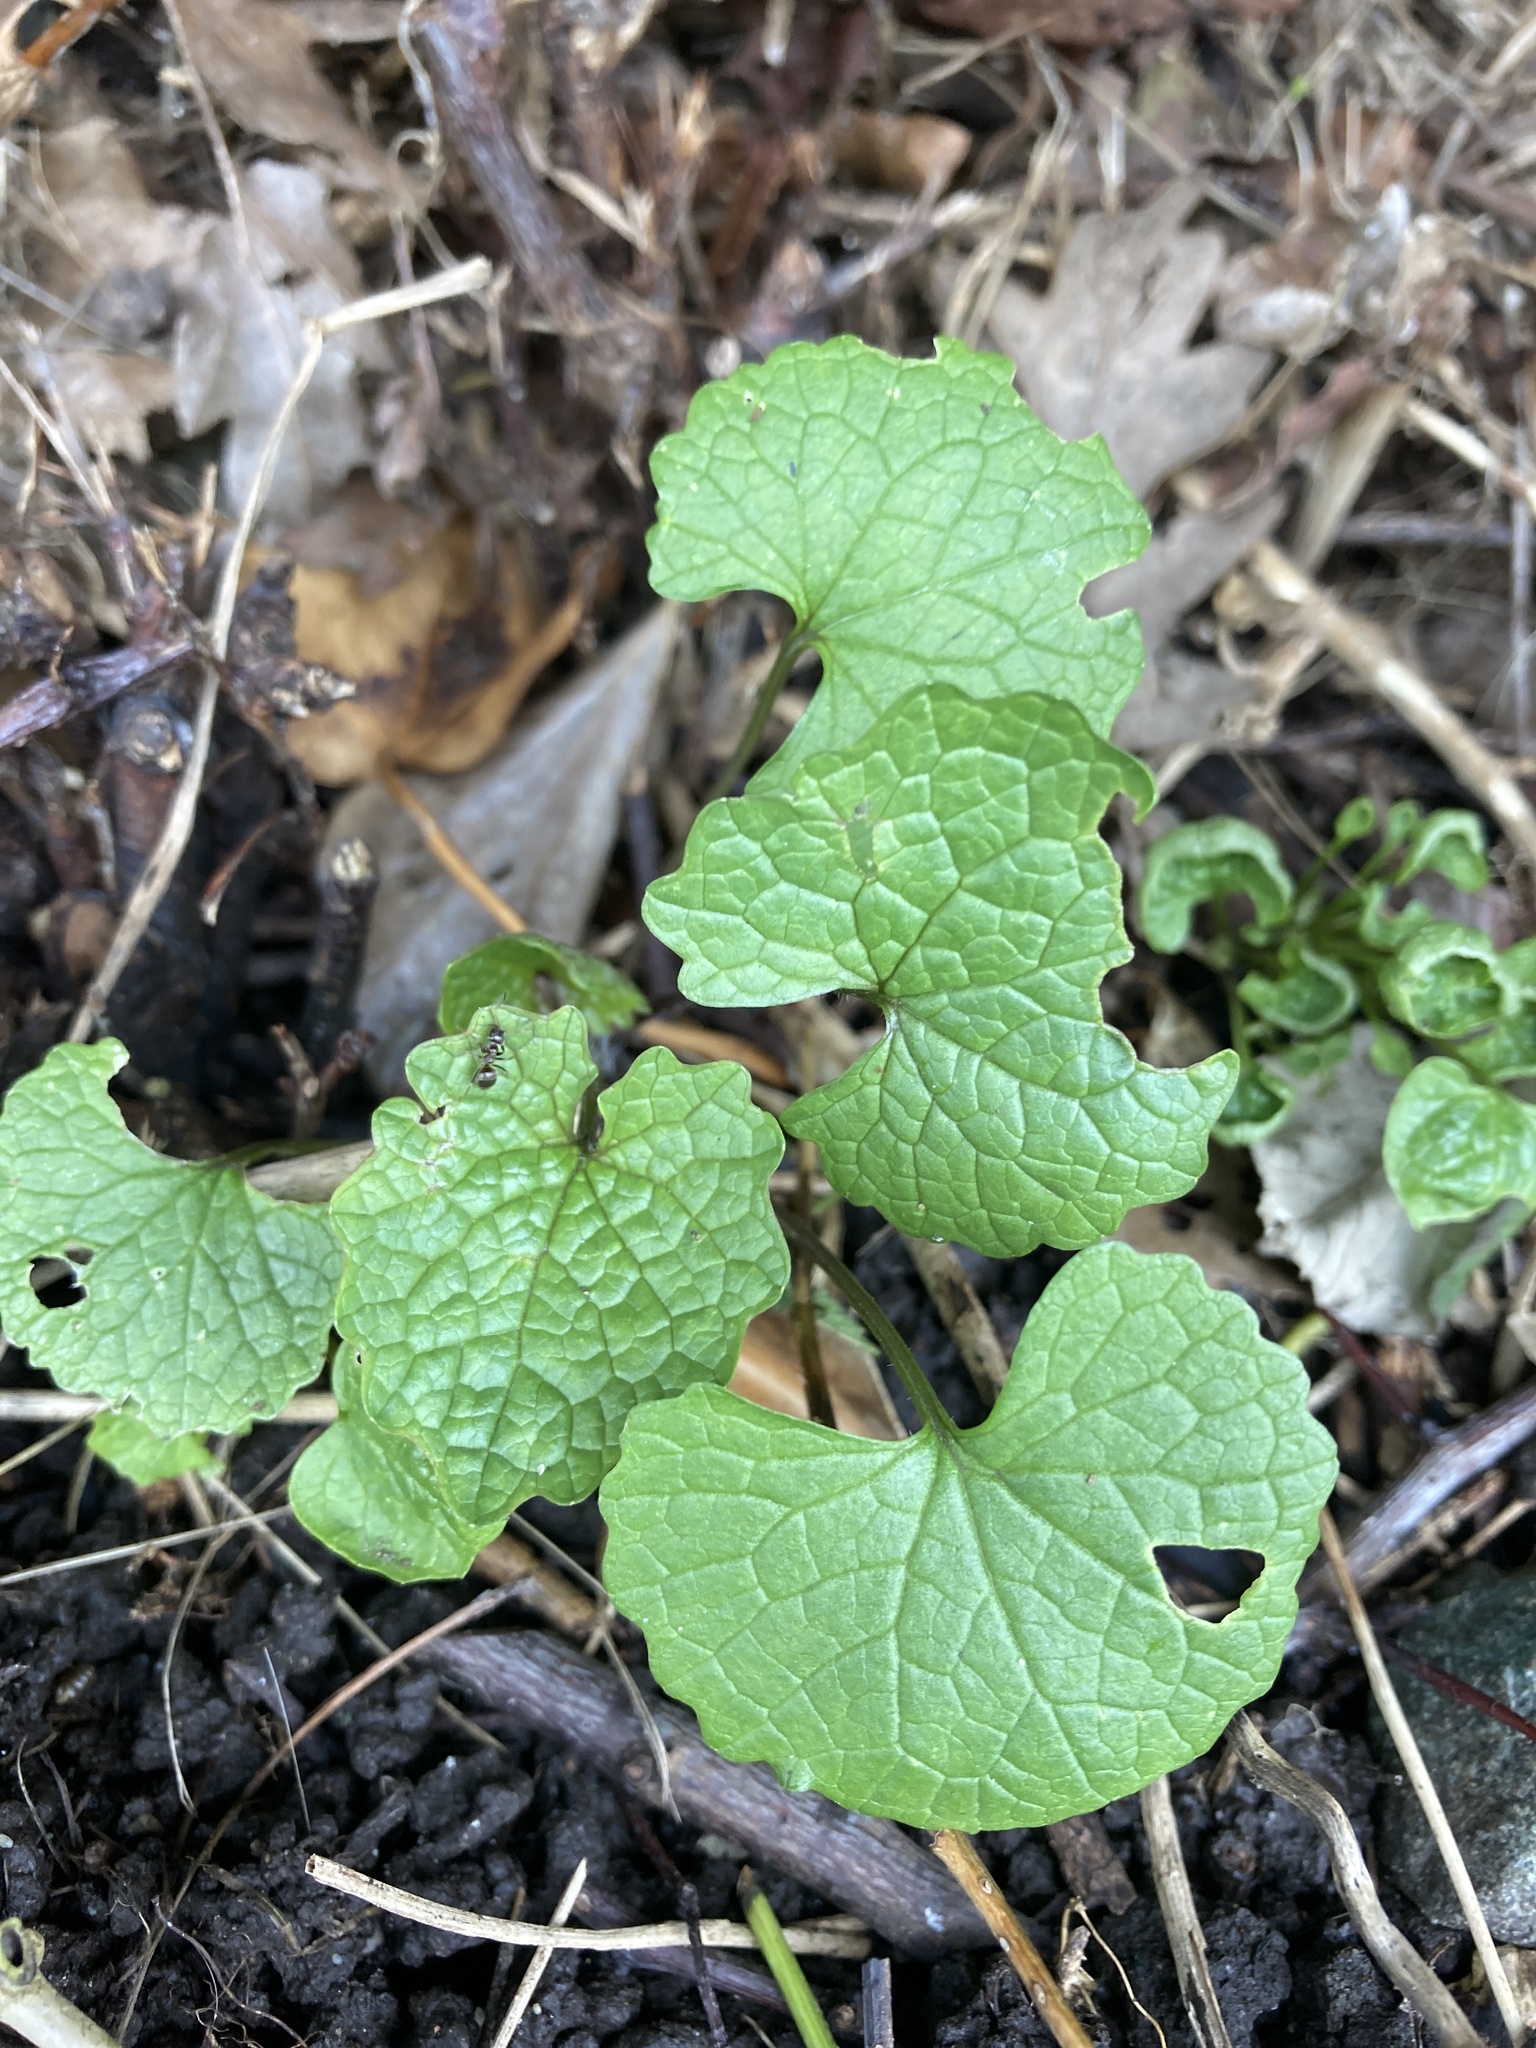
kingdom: Plantae
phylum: Tracheophyta
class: Magnoliopsida
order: Brassicales
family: Brassicaceae
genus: Alliaria
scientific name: Alliaria petiolata
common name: Garlic mustard
